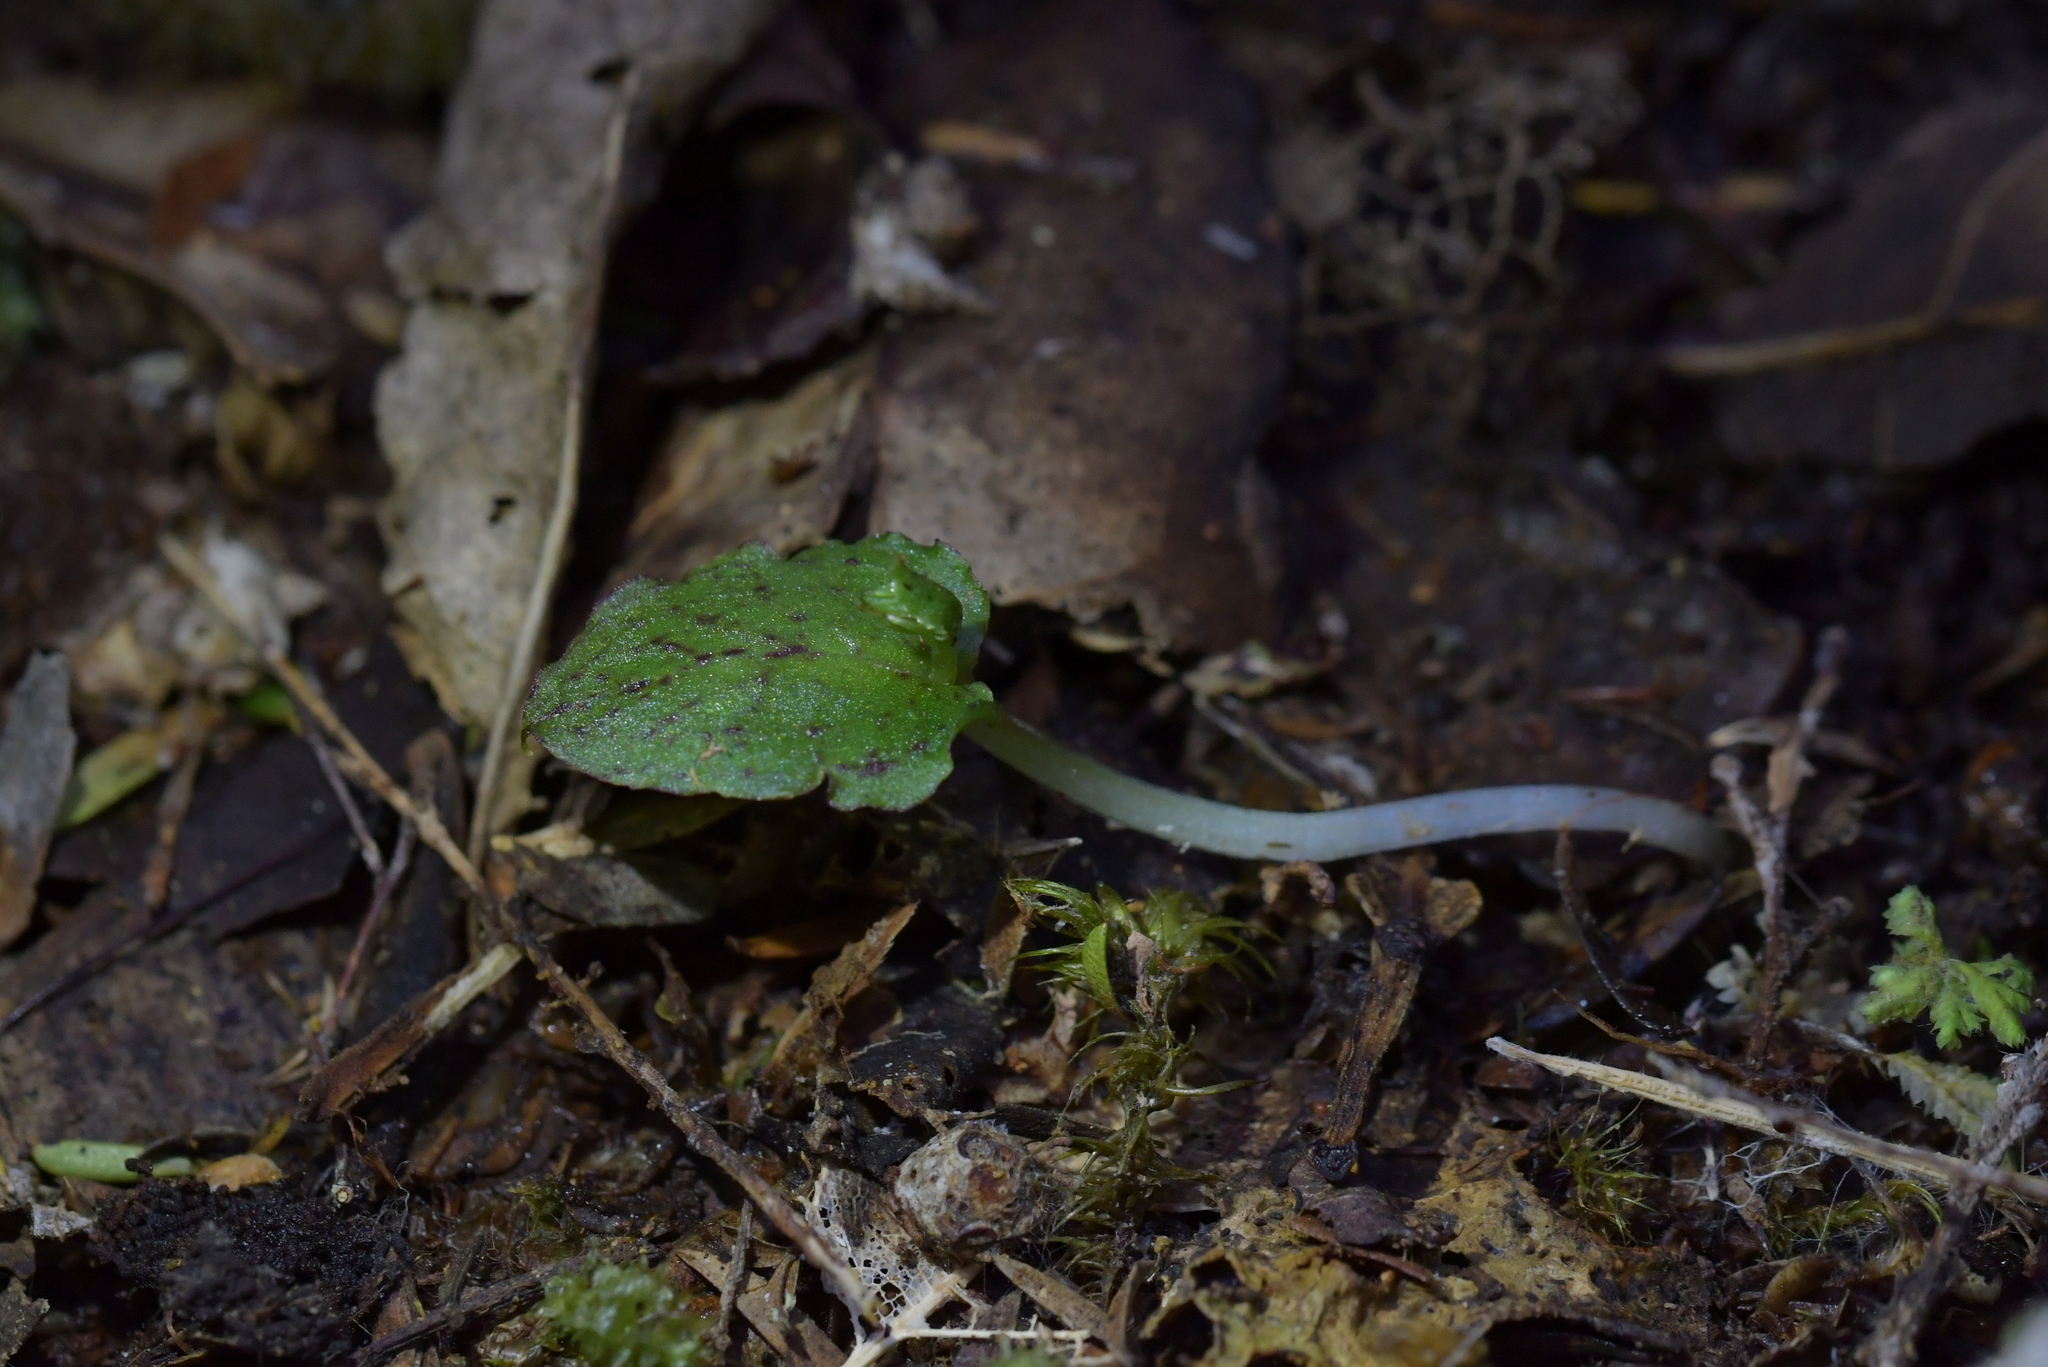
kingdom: Plantae
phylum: Tracheophyta
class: Liliopsida
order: Asparagales
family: Orchidaceae
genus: Corybas
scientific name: Corybas oblongus
